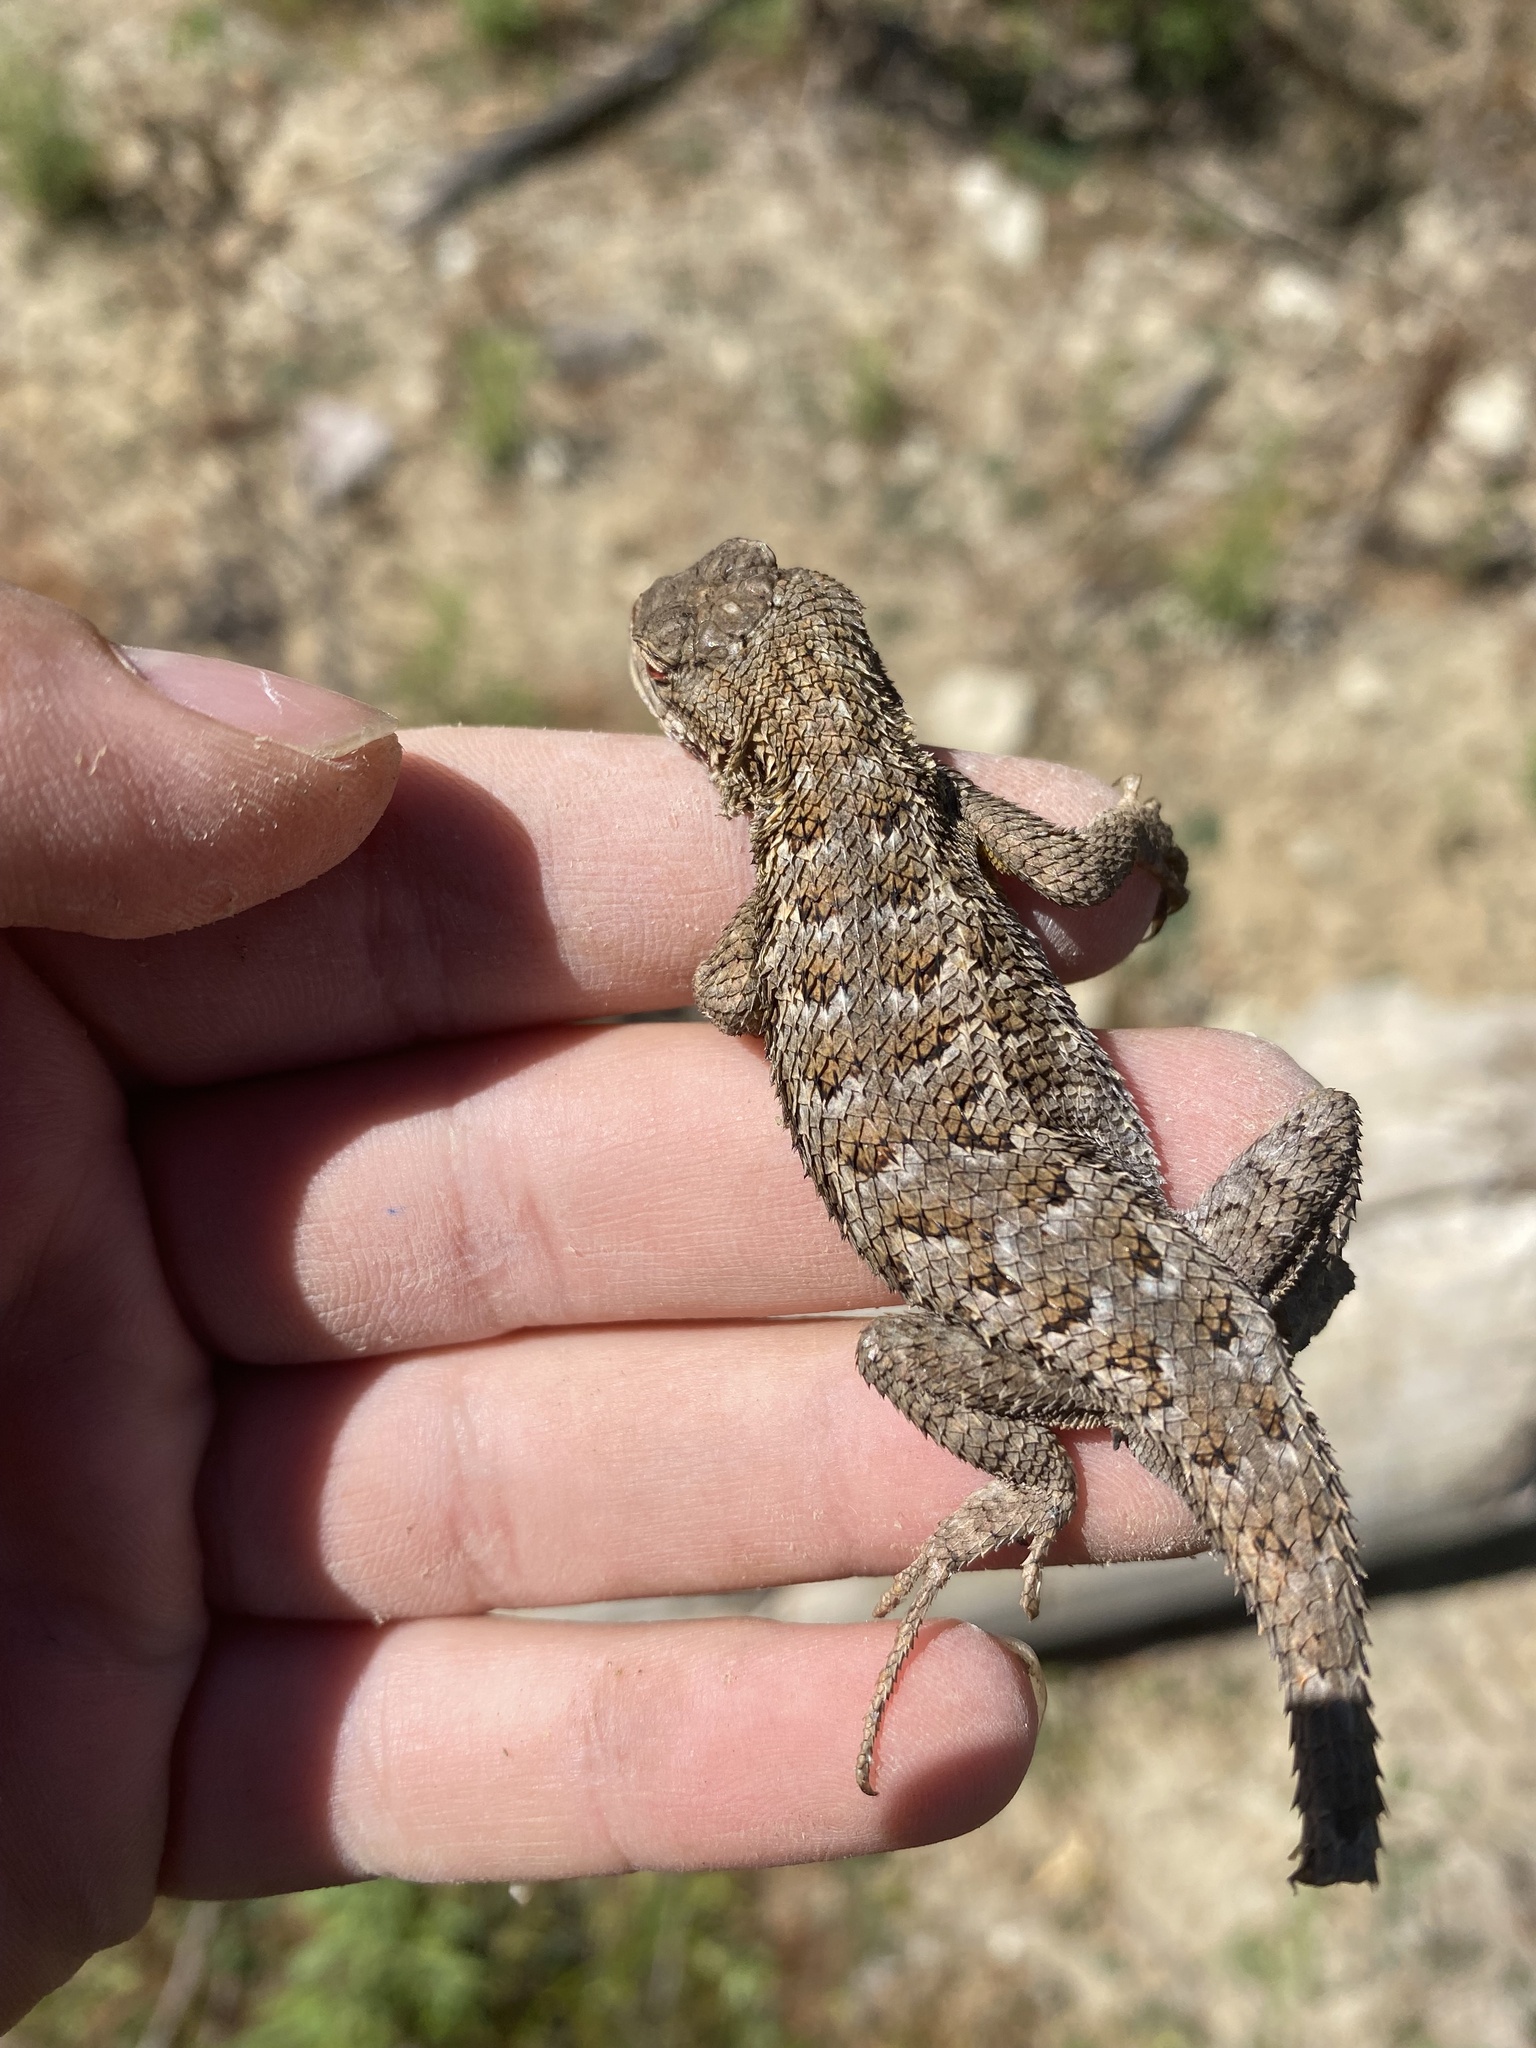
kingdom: Animalia
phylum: Chordata
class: Squamata
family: Phrynosomatidae
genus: Sceloporus
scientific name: Sceloporus occidentalis
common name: Western fence lizard
